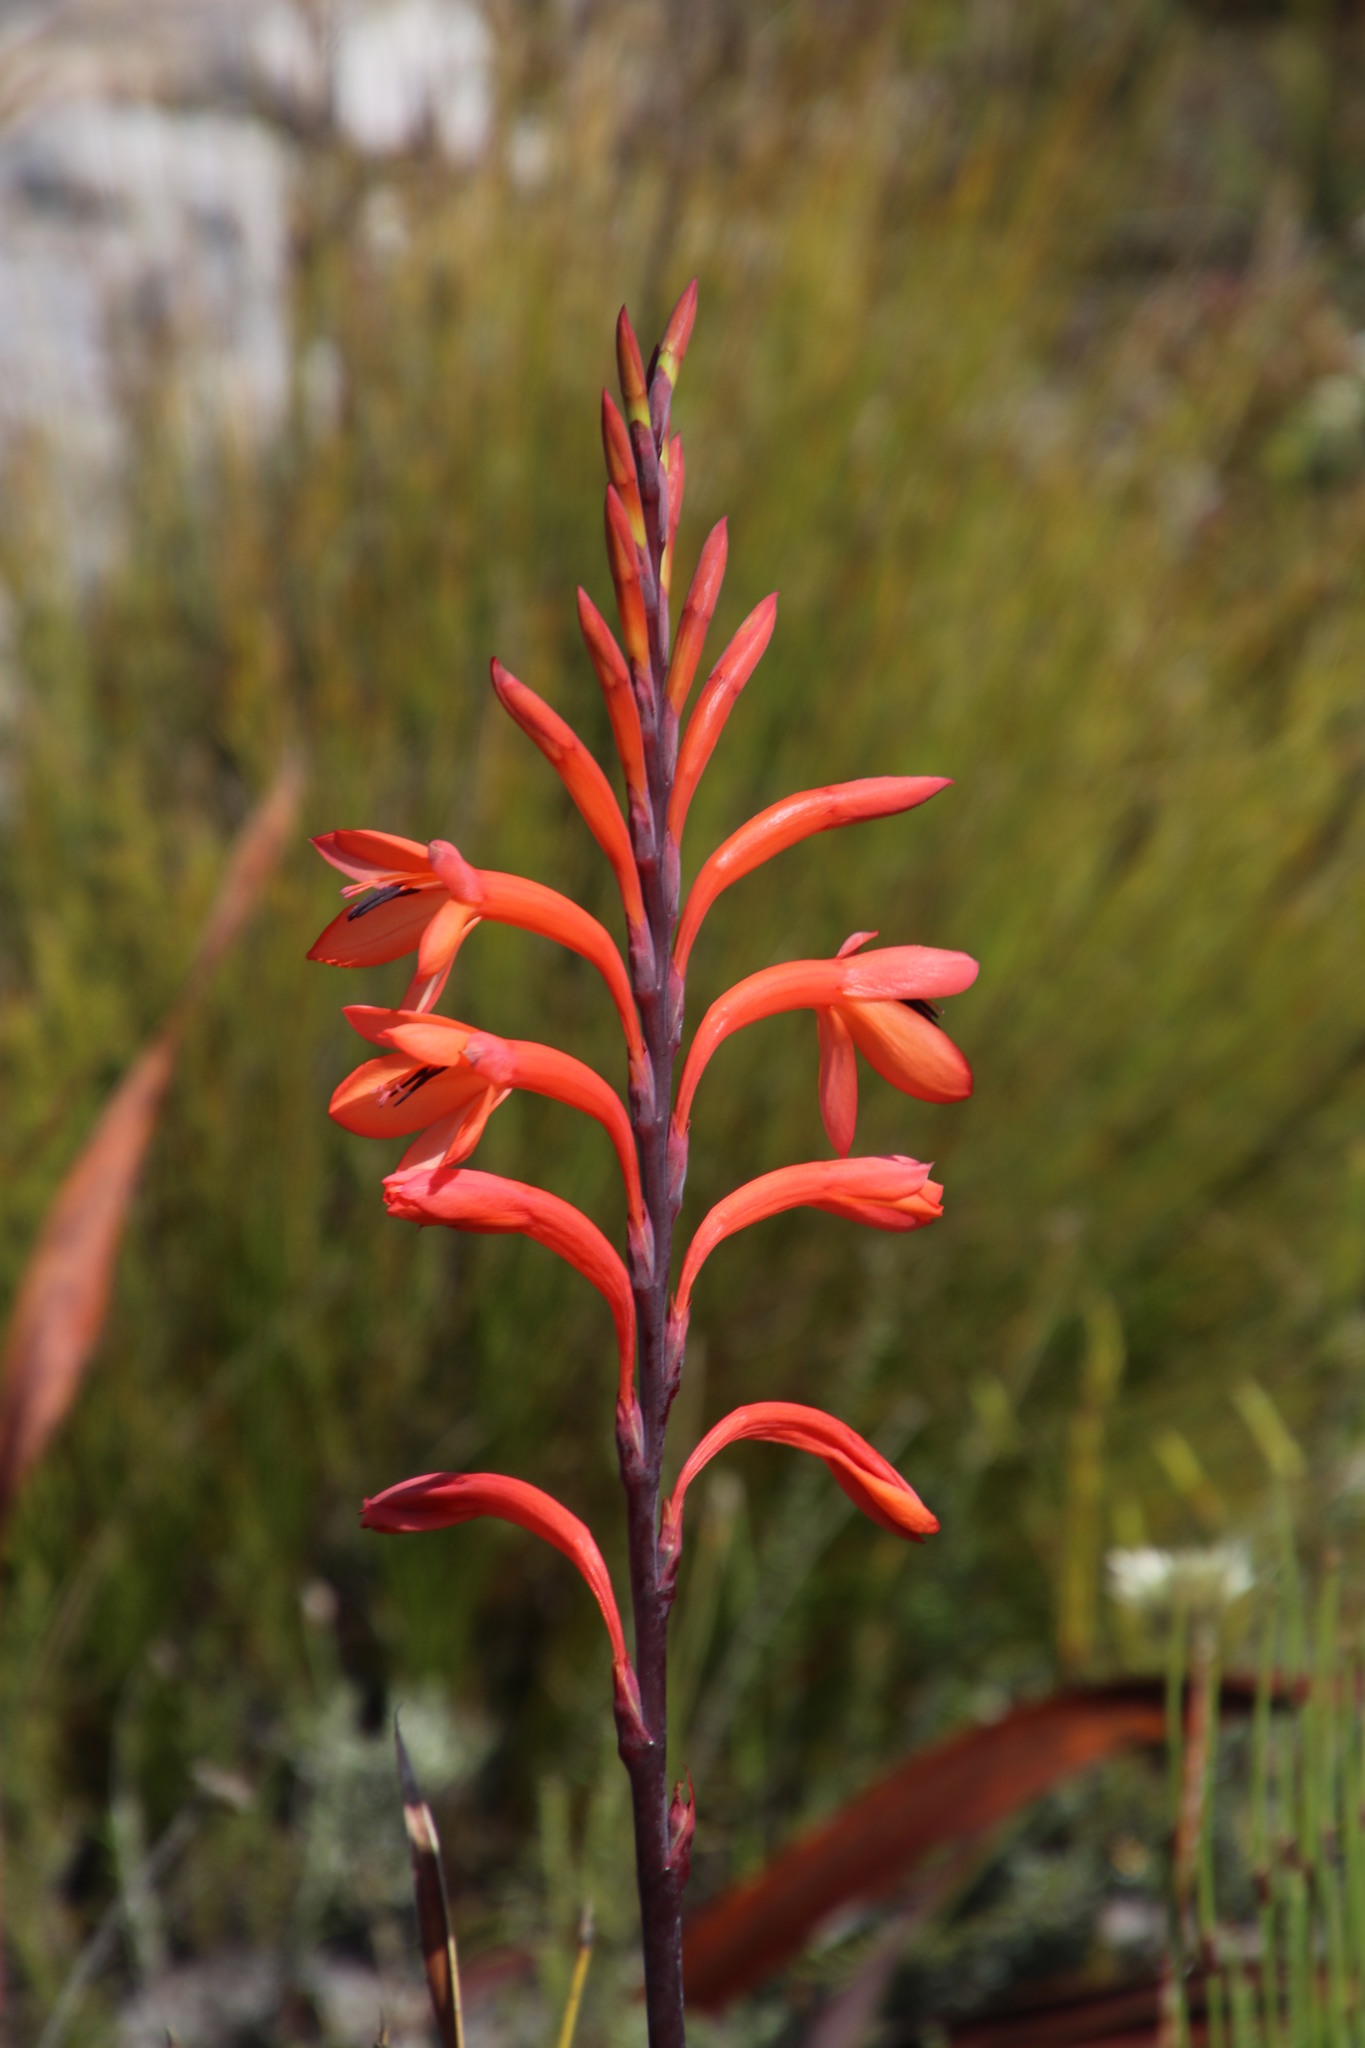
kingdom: Plantae
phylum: Tracheophyta
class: Liliopsida
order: Asparagales
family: Iridaceae
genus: Watsonia
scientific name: Watsonia tabularis
